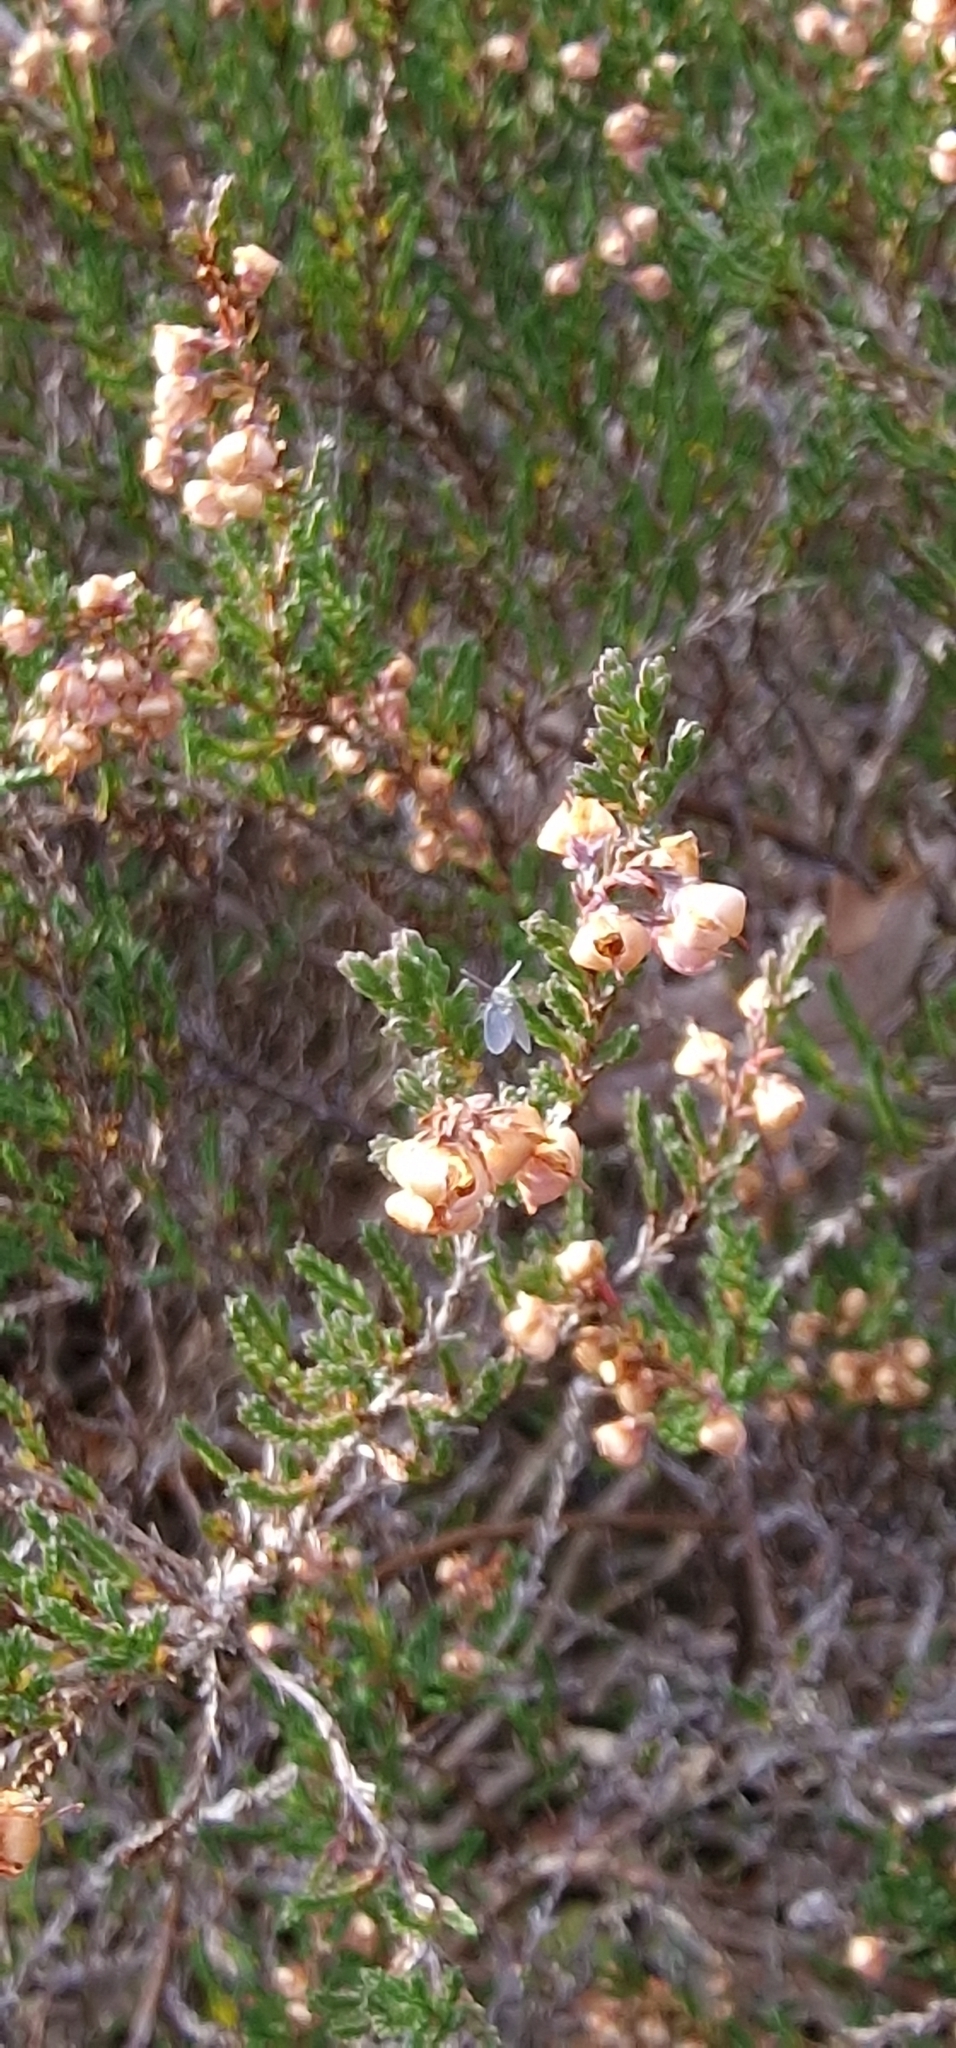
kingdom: Plantae
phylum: Tracheophyta
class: Magnoliopsida
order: Ericales
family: Ericaceae
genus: Calluna
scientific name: Calluna vulgaris
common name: Heather
